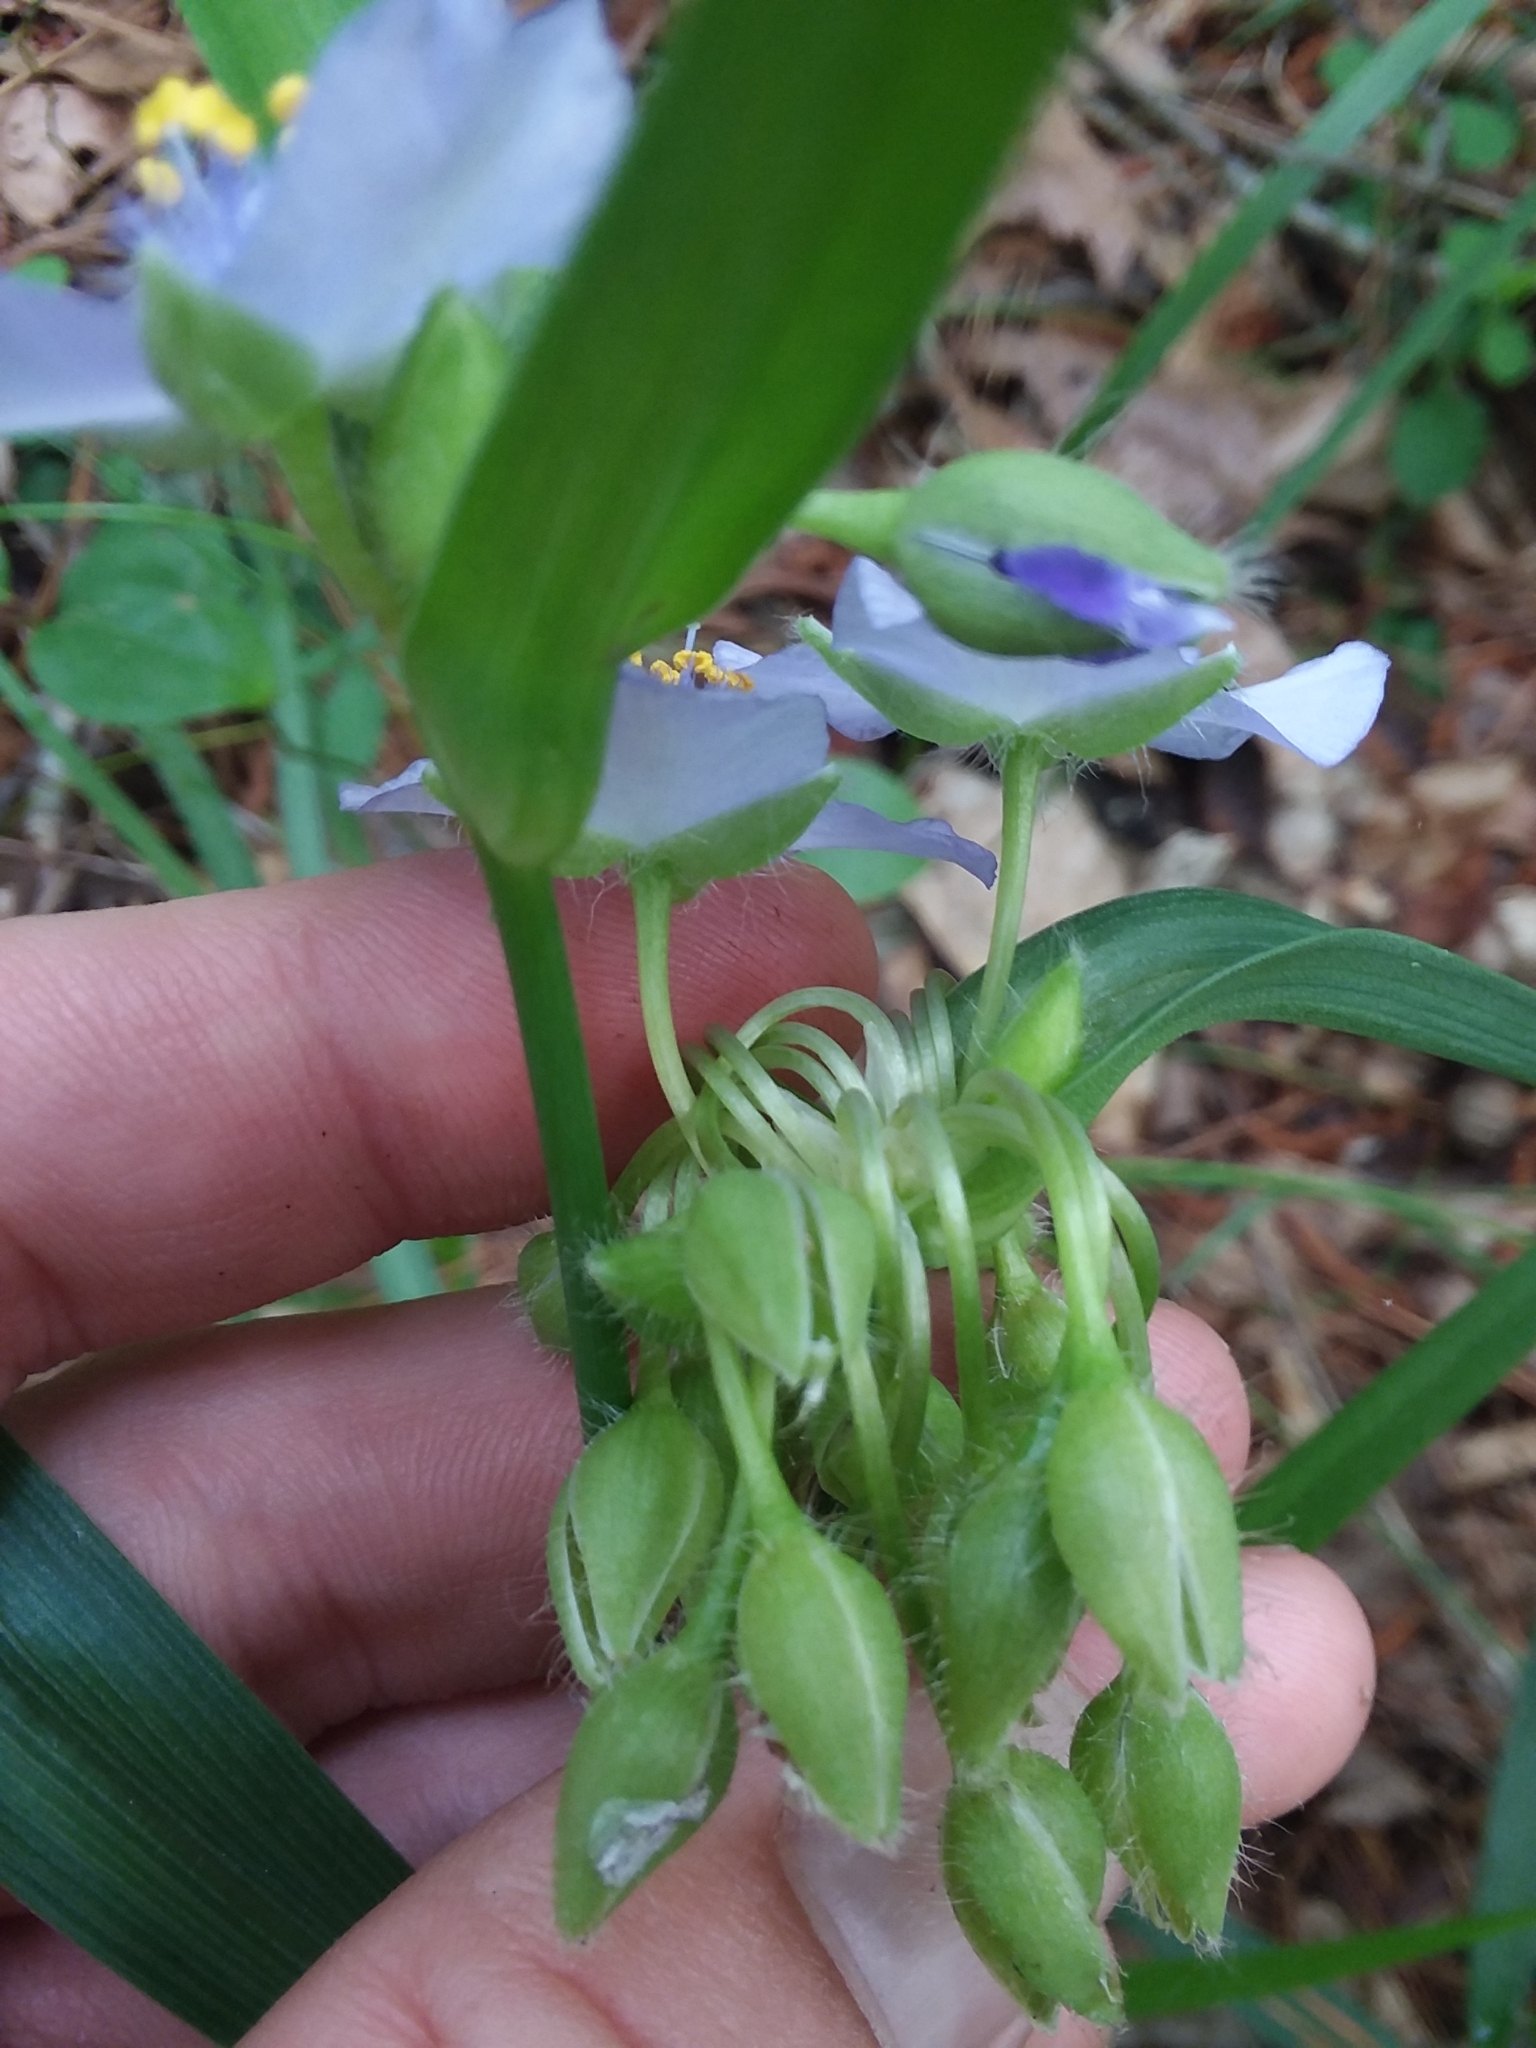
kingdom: Plantae
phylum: Tracheophyta
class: Liliopsida
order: Commelinales
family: Commelinaceae
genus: Tradescantia
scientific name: Tradescantia virginiana
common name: Spiderwort
